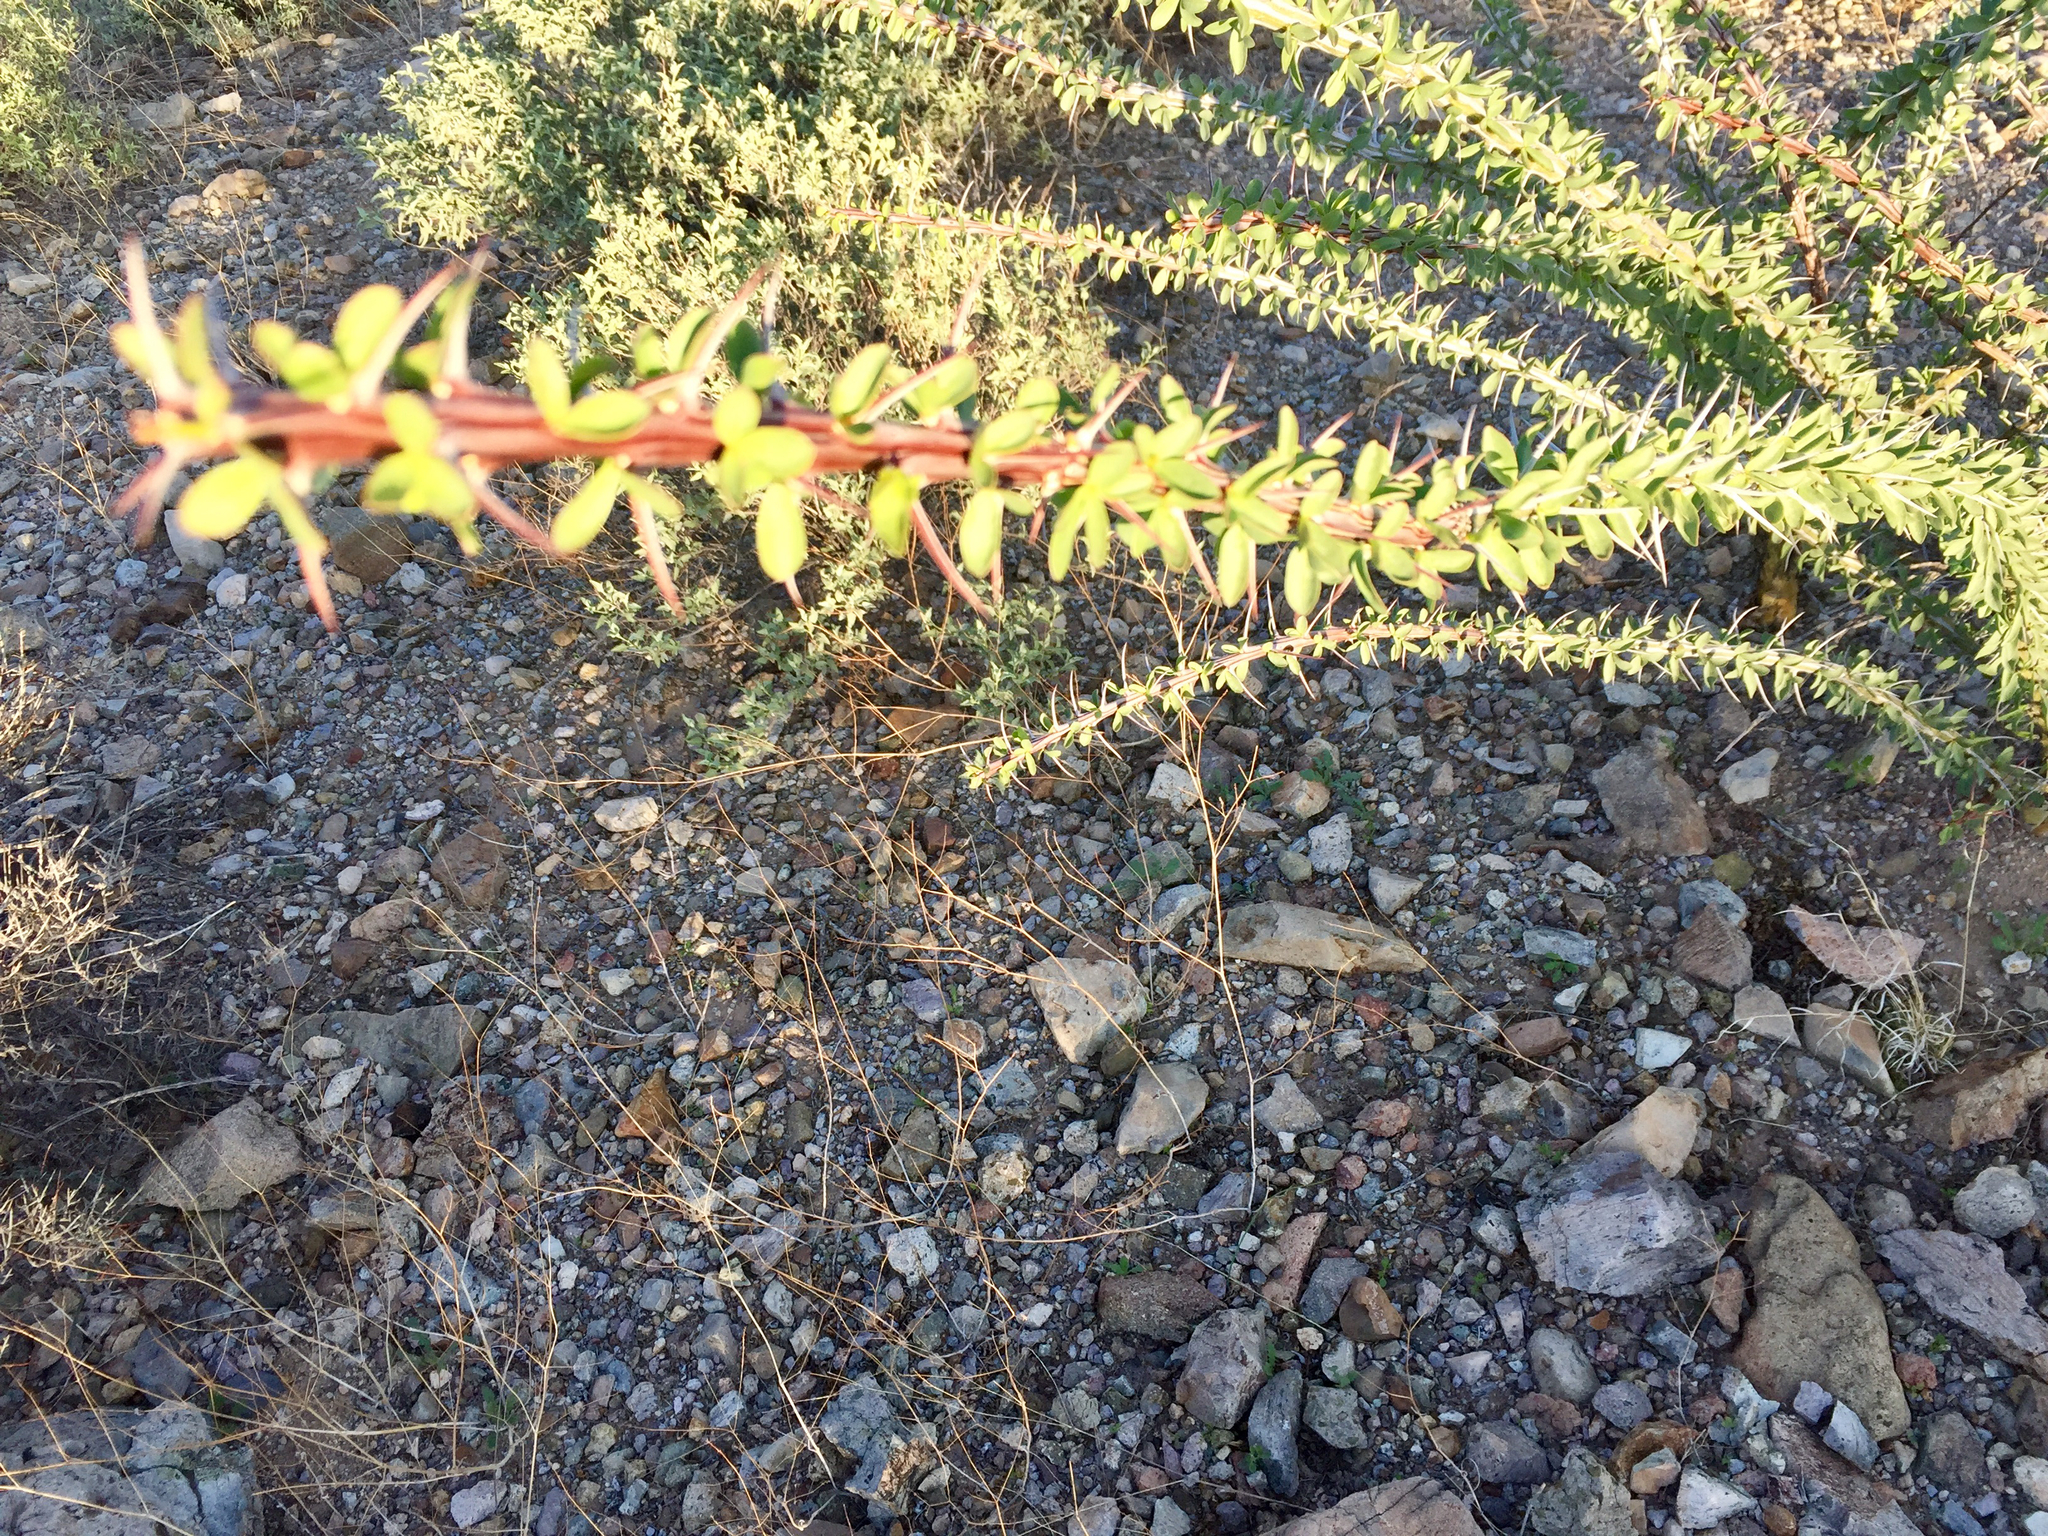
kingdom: Plantae
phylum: Tracheophyta
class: Magnoliopsida
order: Ericales
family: Fouquieriaceae
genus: Fouquieria
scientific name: Fouquieria splendens
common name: Vine-cactus
